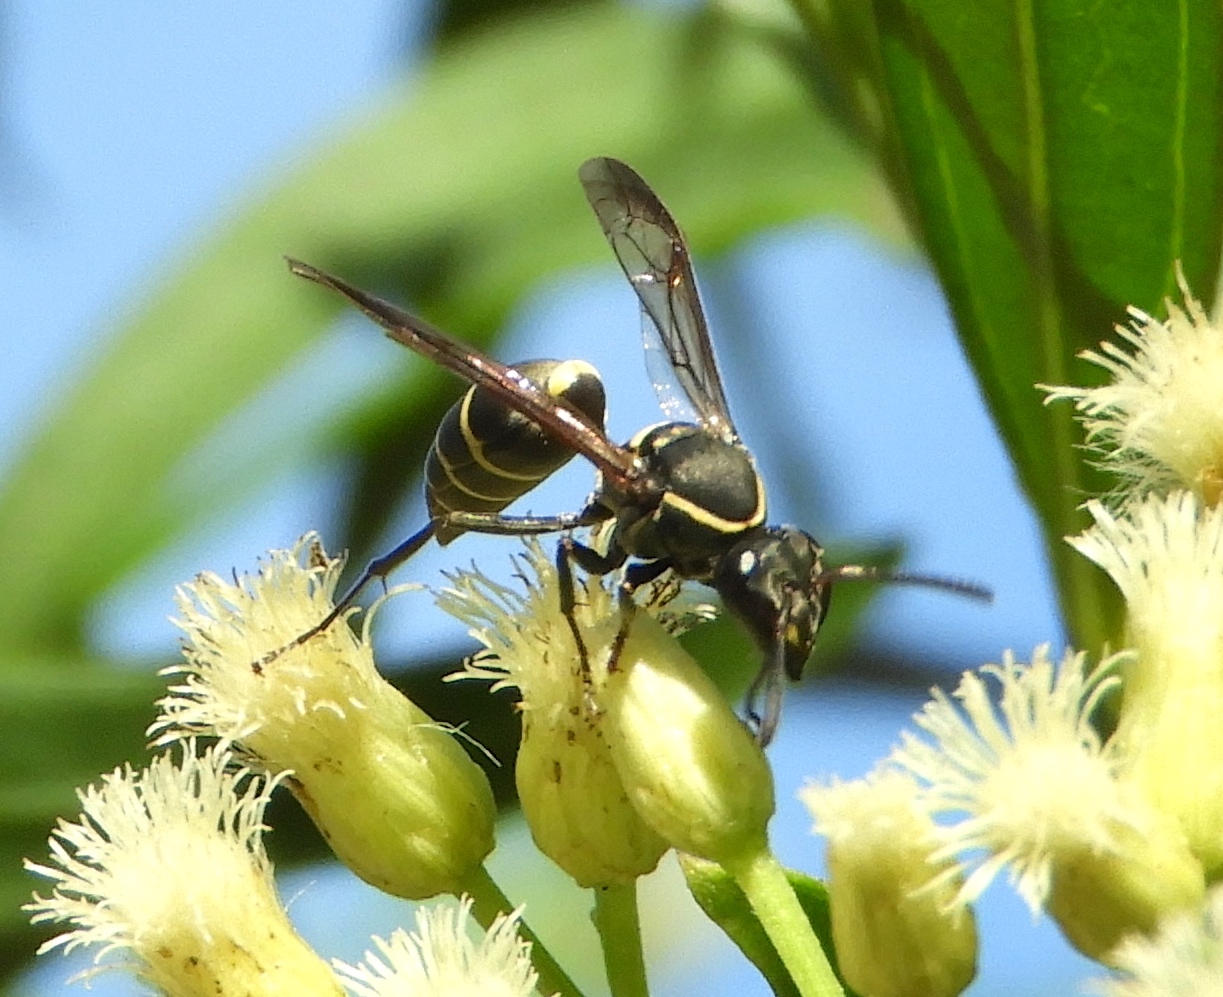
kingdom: Animalia
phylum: Arthropoda
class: Insecta
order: Hymenoptera
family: Vespidae
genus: Myrapetra
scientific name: Myrapetra
